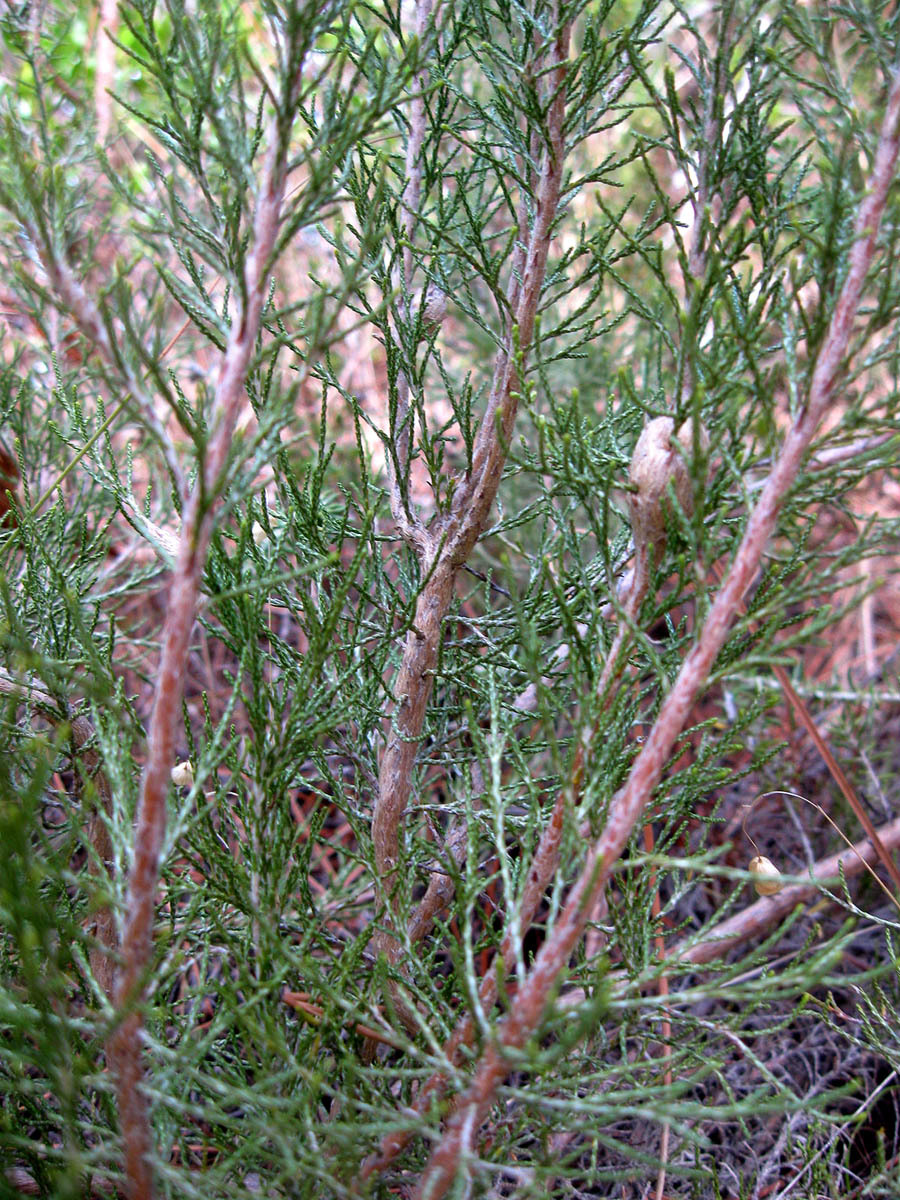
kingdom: Plantae
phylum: Tracheophyta
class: Magnoliopsida
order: Asterales
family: Asteraceae
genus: Dicerothamnus
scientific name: Dicerothamnus rhinocerotis
